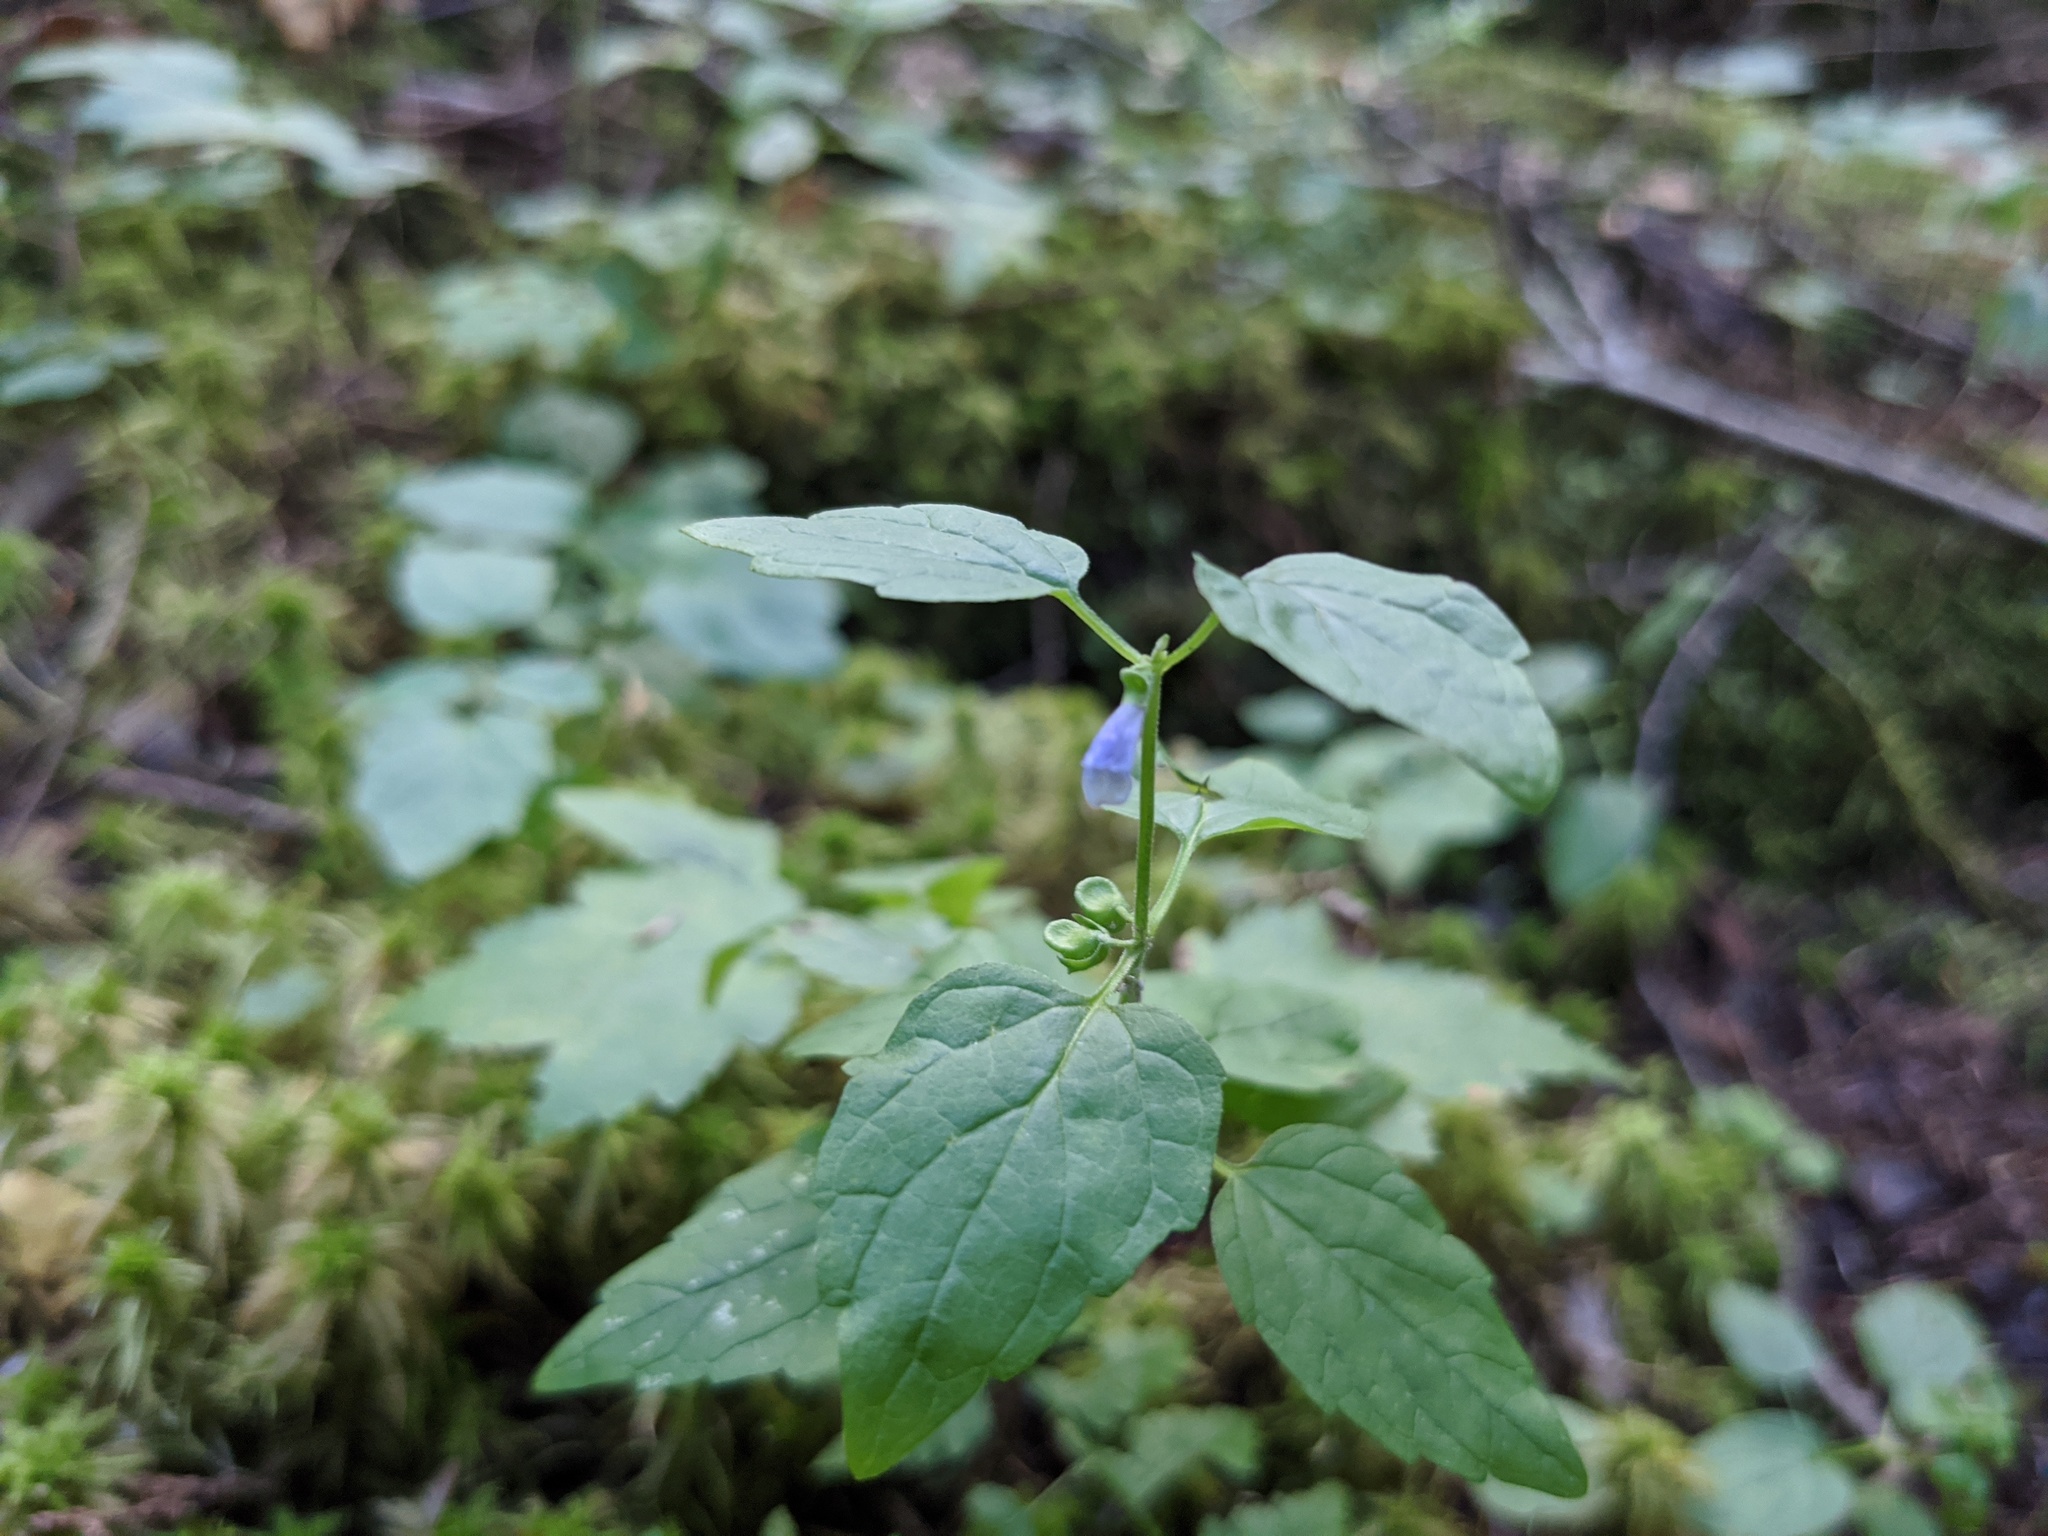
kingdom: Plantae
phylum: Tracheophyta
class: Magnoliopsida
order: Lamiales
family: Lamiaceae
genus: Scutellaria
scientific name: Scutellaria lateriflora
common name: Blue skullcap
